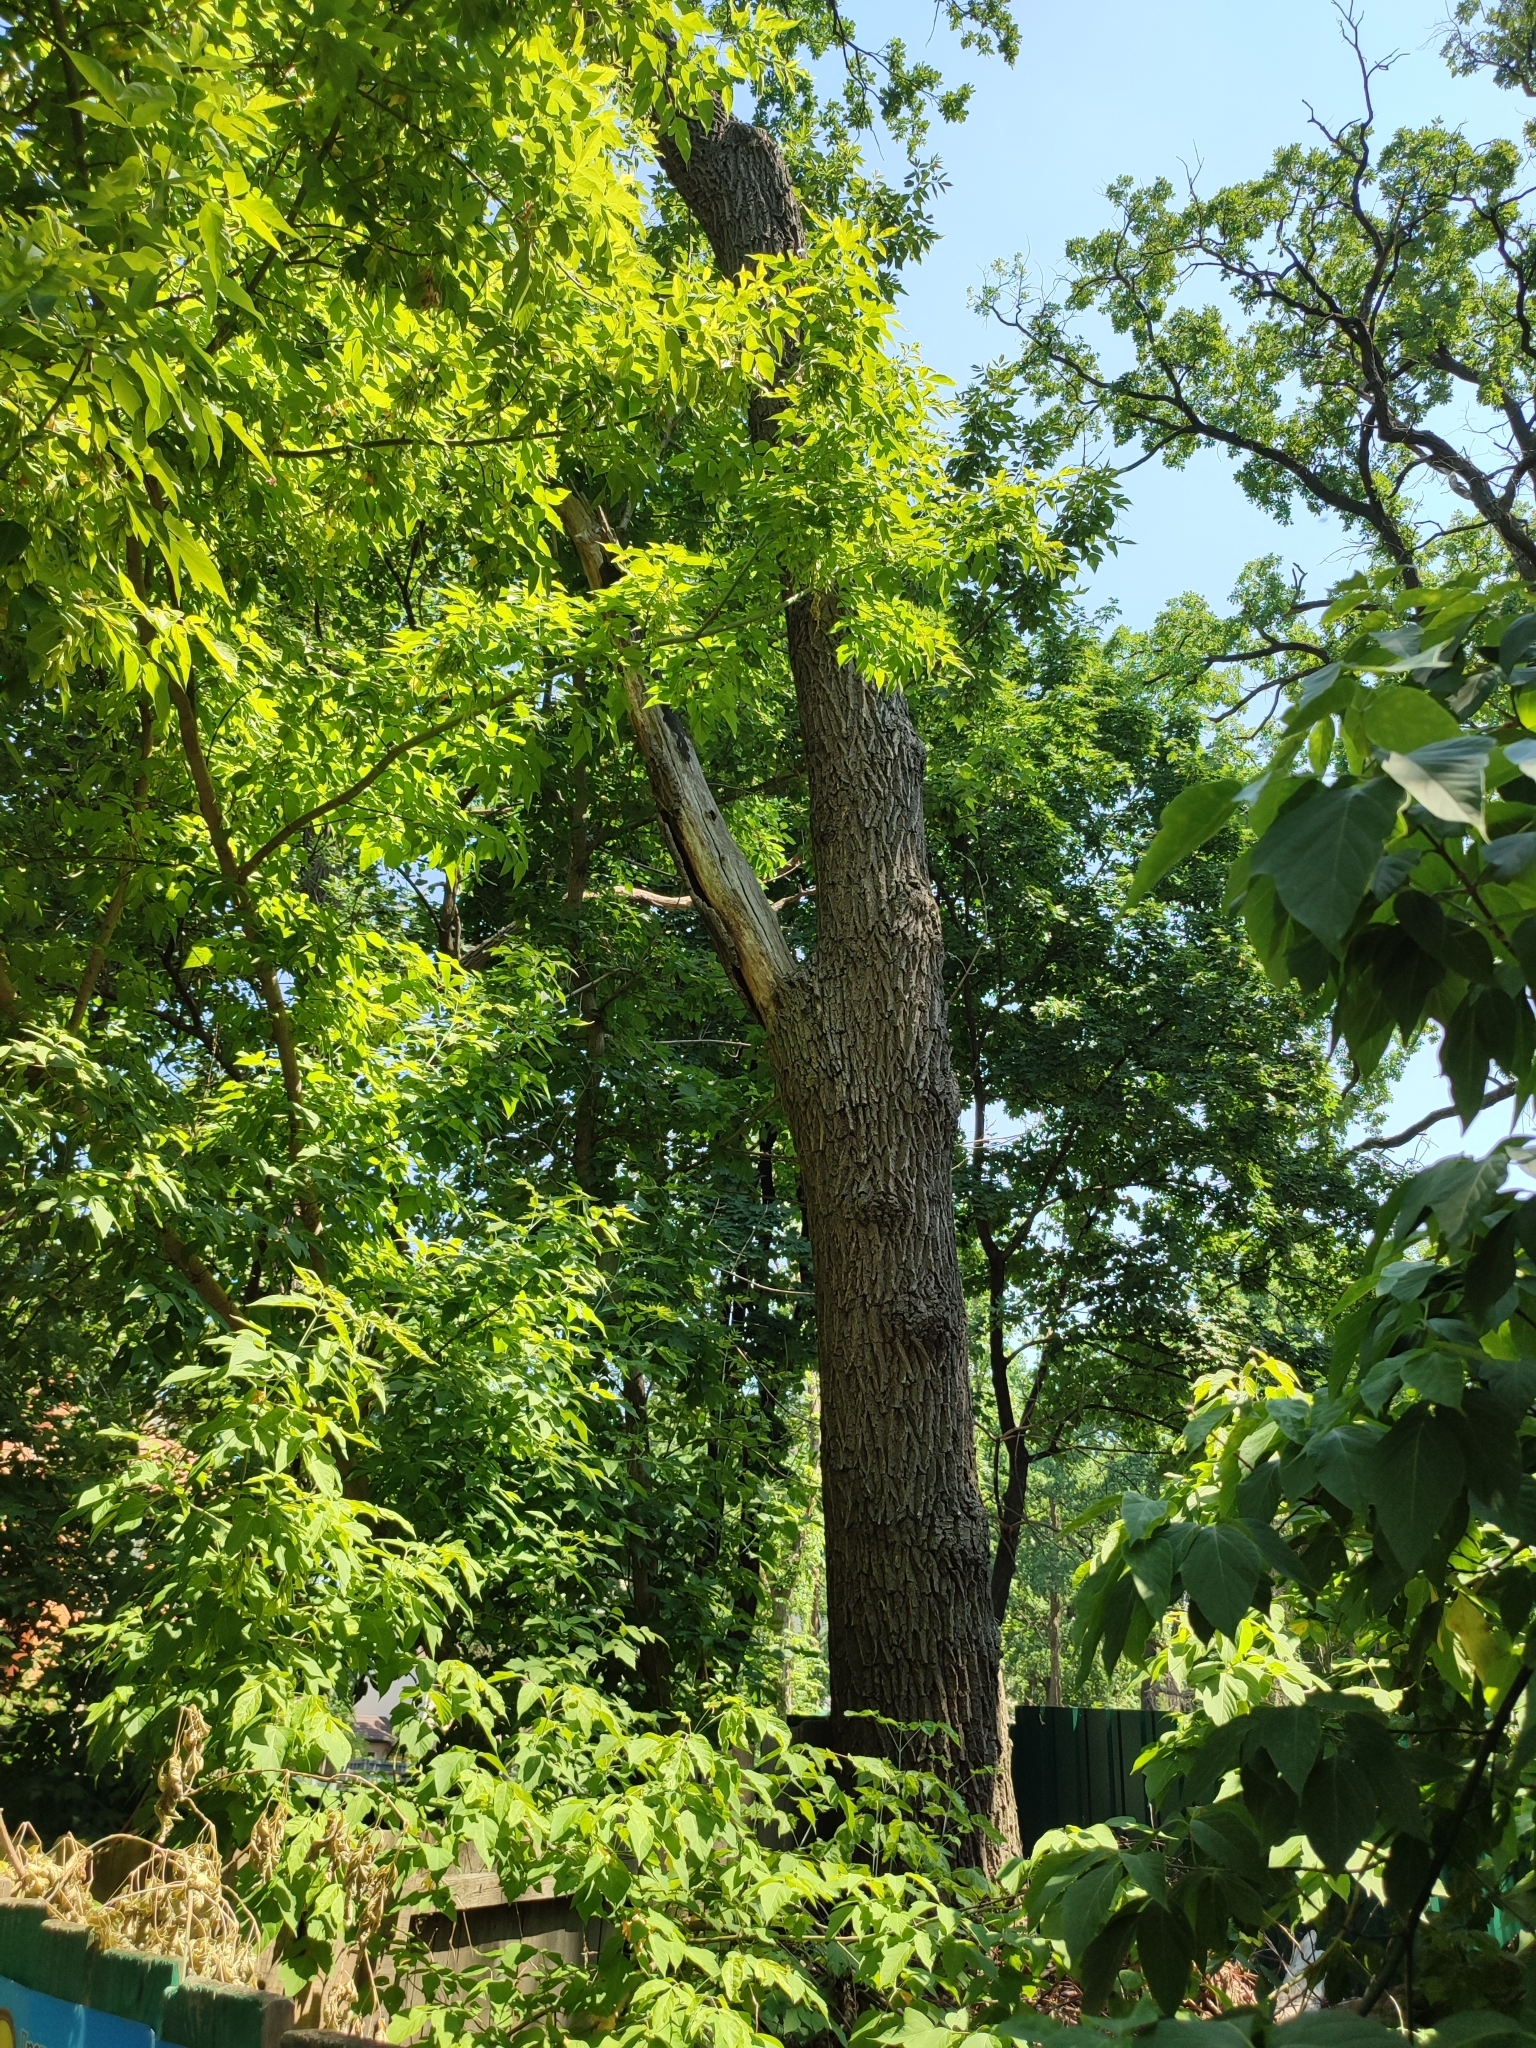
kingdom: Plantae
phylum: Tracheophyta
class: Magnoliopsida
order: Fagales
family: Fagaceae
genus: Quercus
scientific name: Quercus robur
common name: Pedunculate oak
